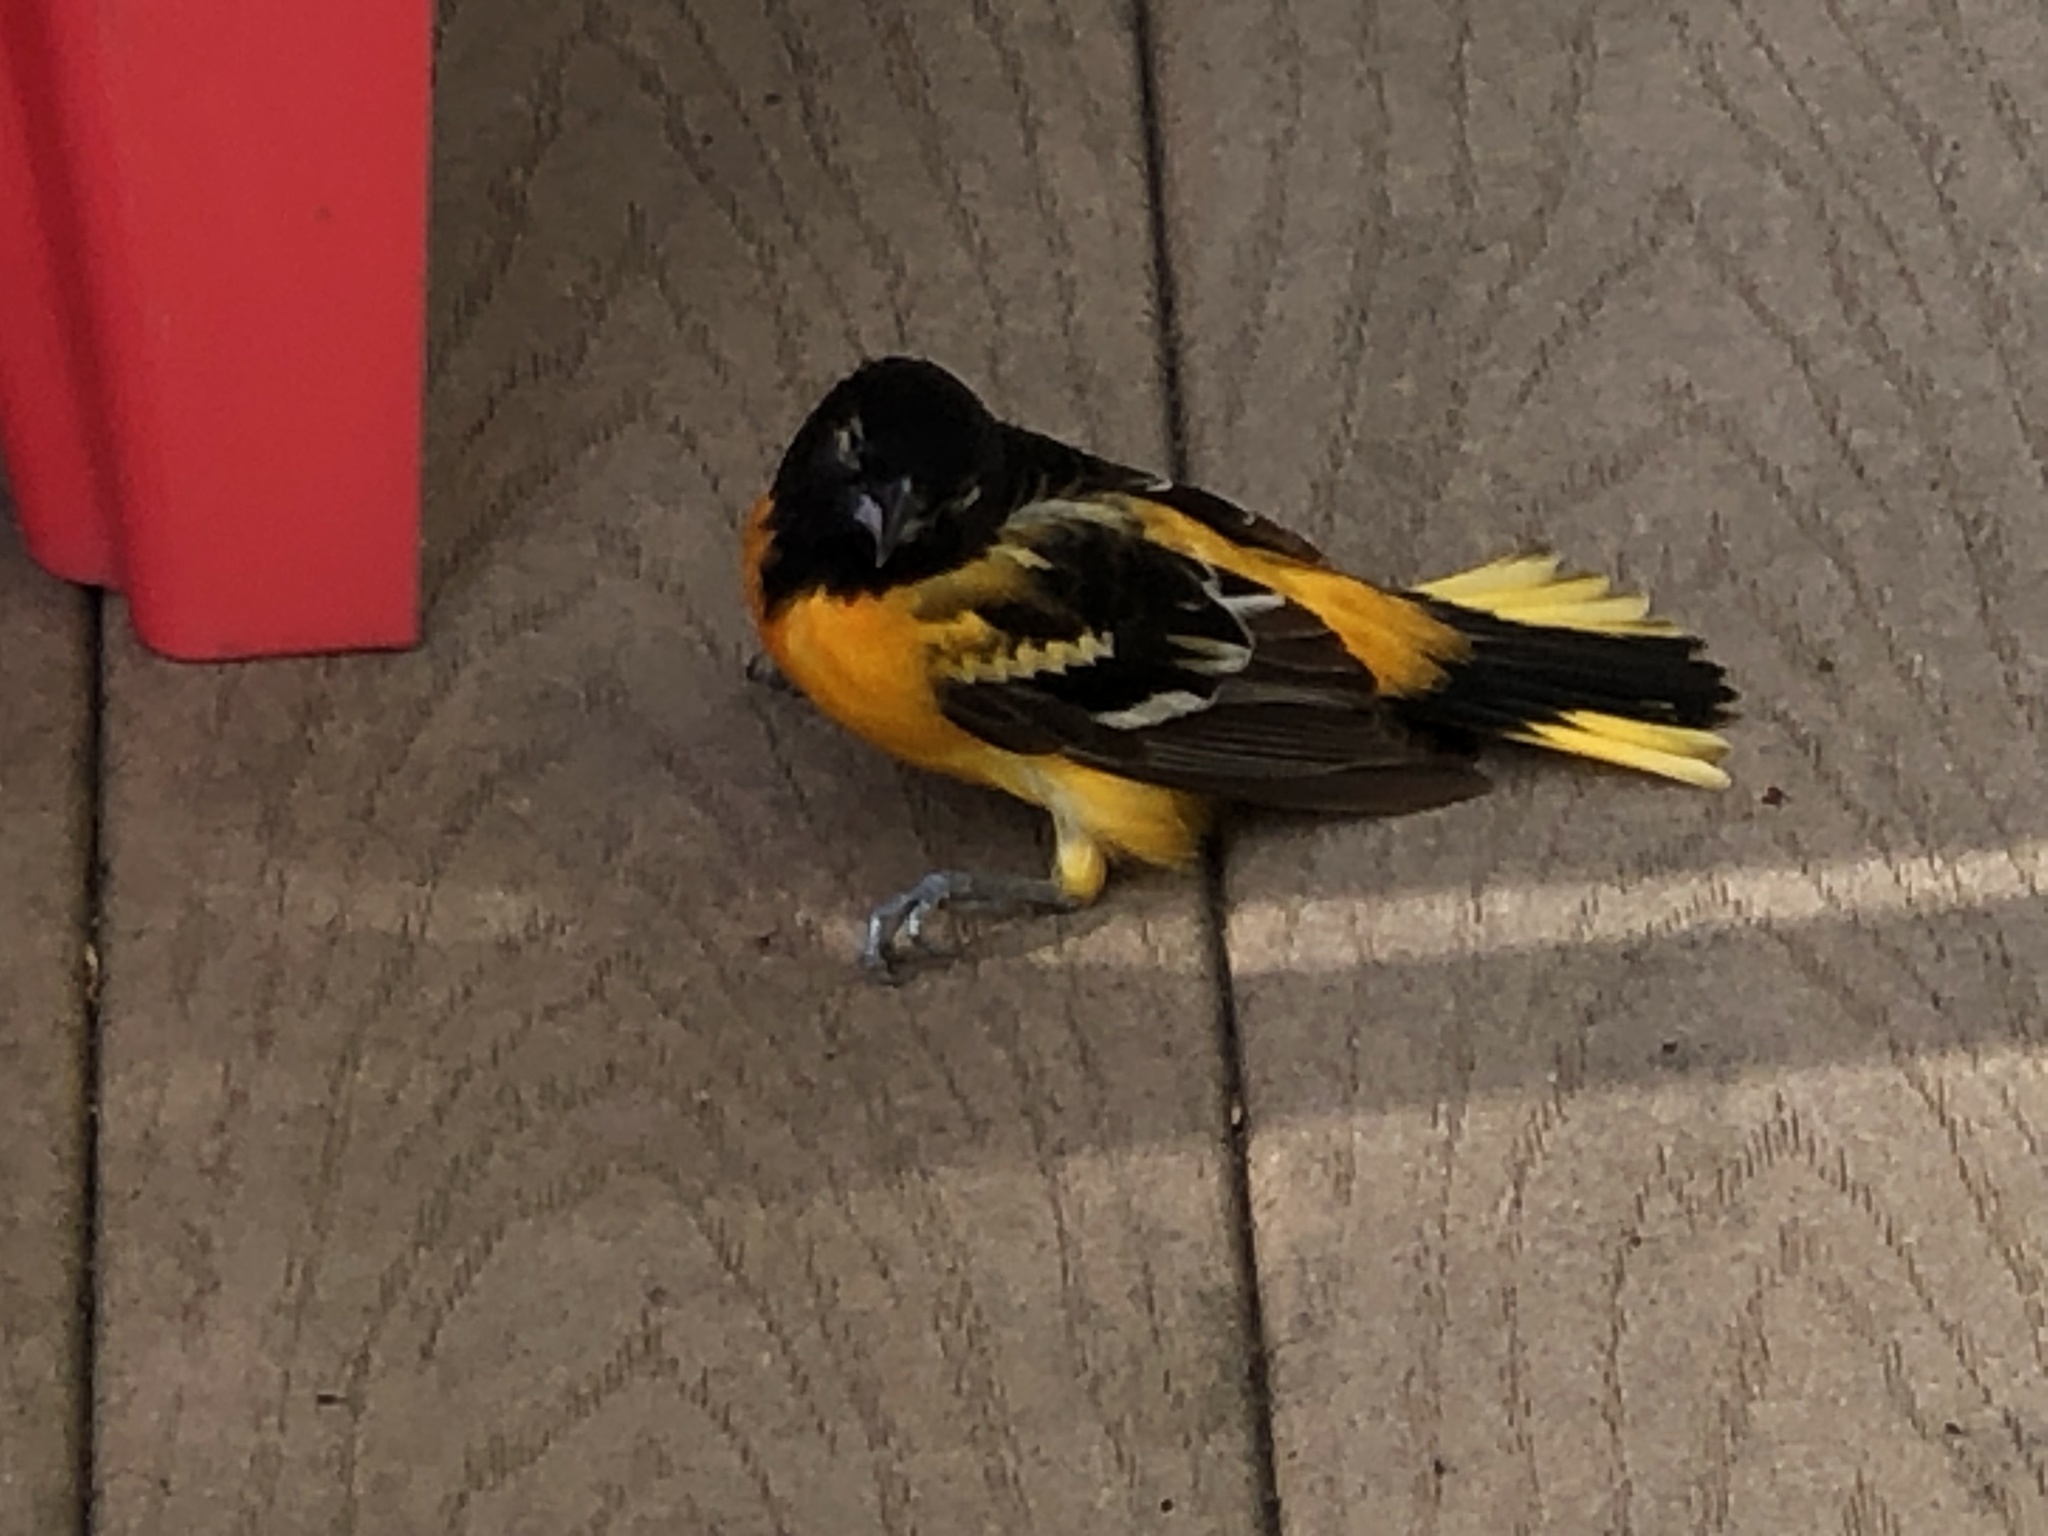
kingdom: Animalia
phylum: Chordata
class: Aves
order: Passeriformes
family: Icteridae
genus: Icterus
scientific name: Icterus galbula
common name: Baltimore oriole
